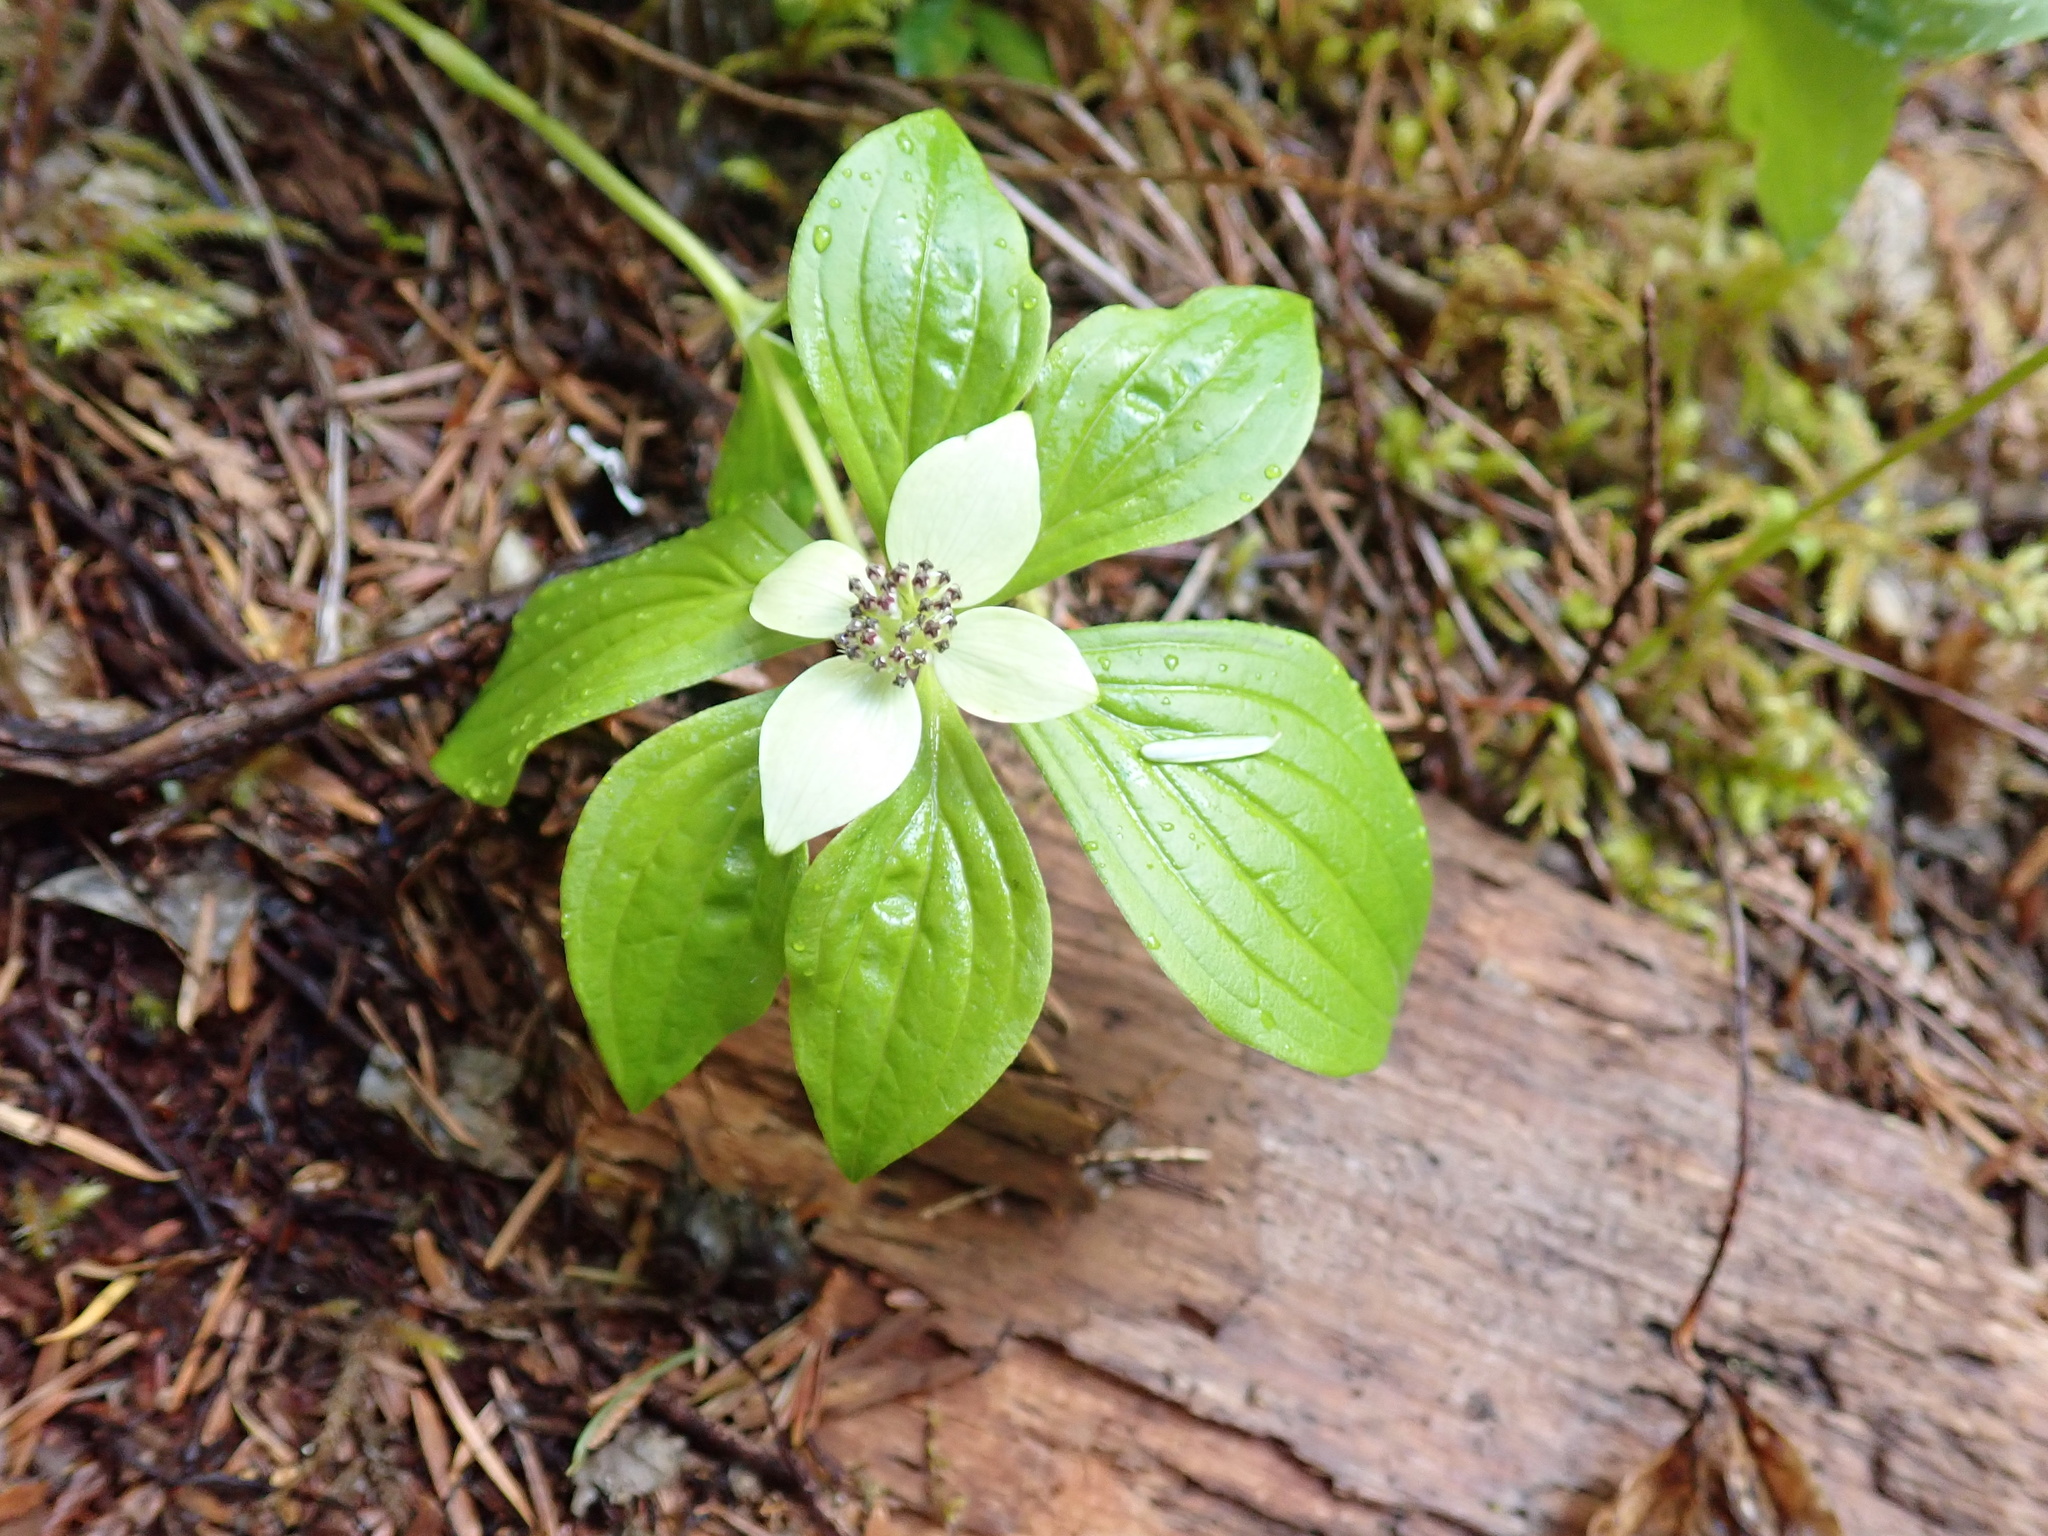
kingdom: Plantae
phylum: Tracheophyta
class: Magnoliopsida
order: Cornales
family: Cornaceae
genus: Cornus
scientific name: Cornus unalaschkensis
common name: Alaska bunchberry
